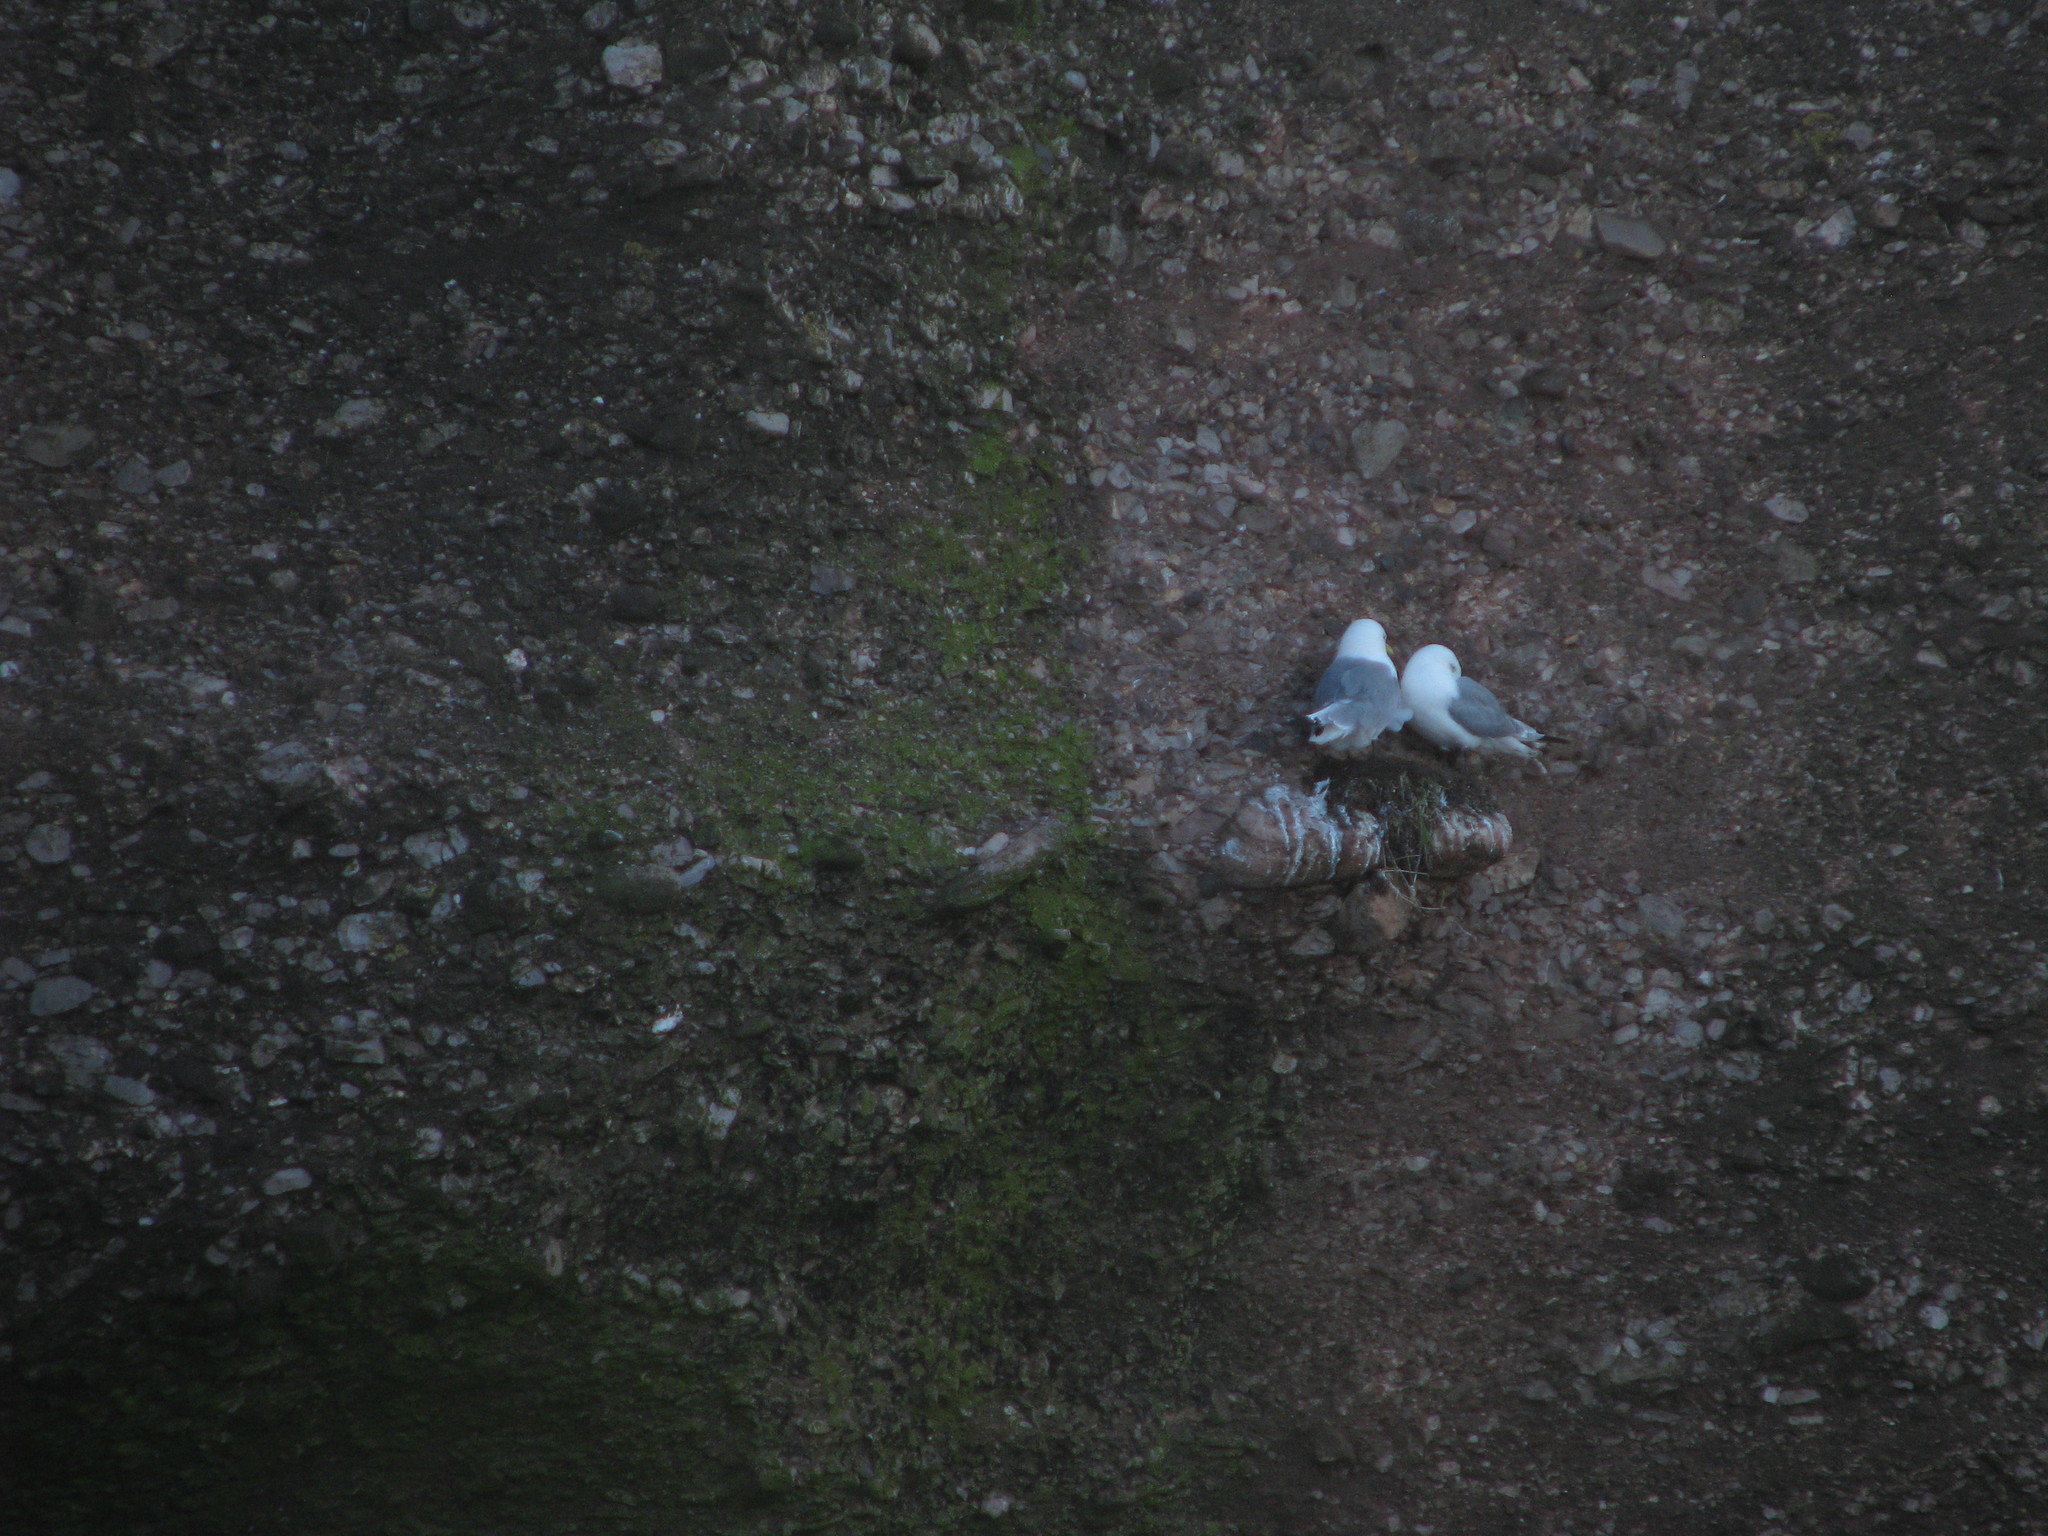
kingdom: Animalia
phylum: Chordata
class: Aves
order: Charadriiformes
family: Laridae
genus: Rissa
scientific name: Rissa tridactyla
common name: Black-legged kittiwake
